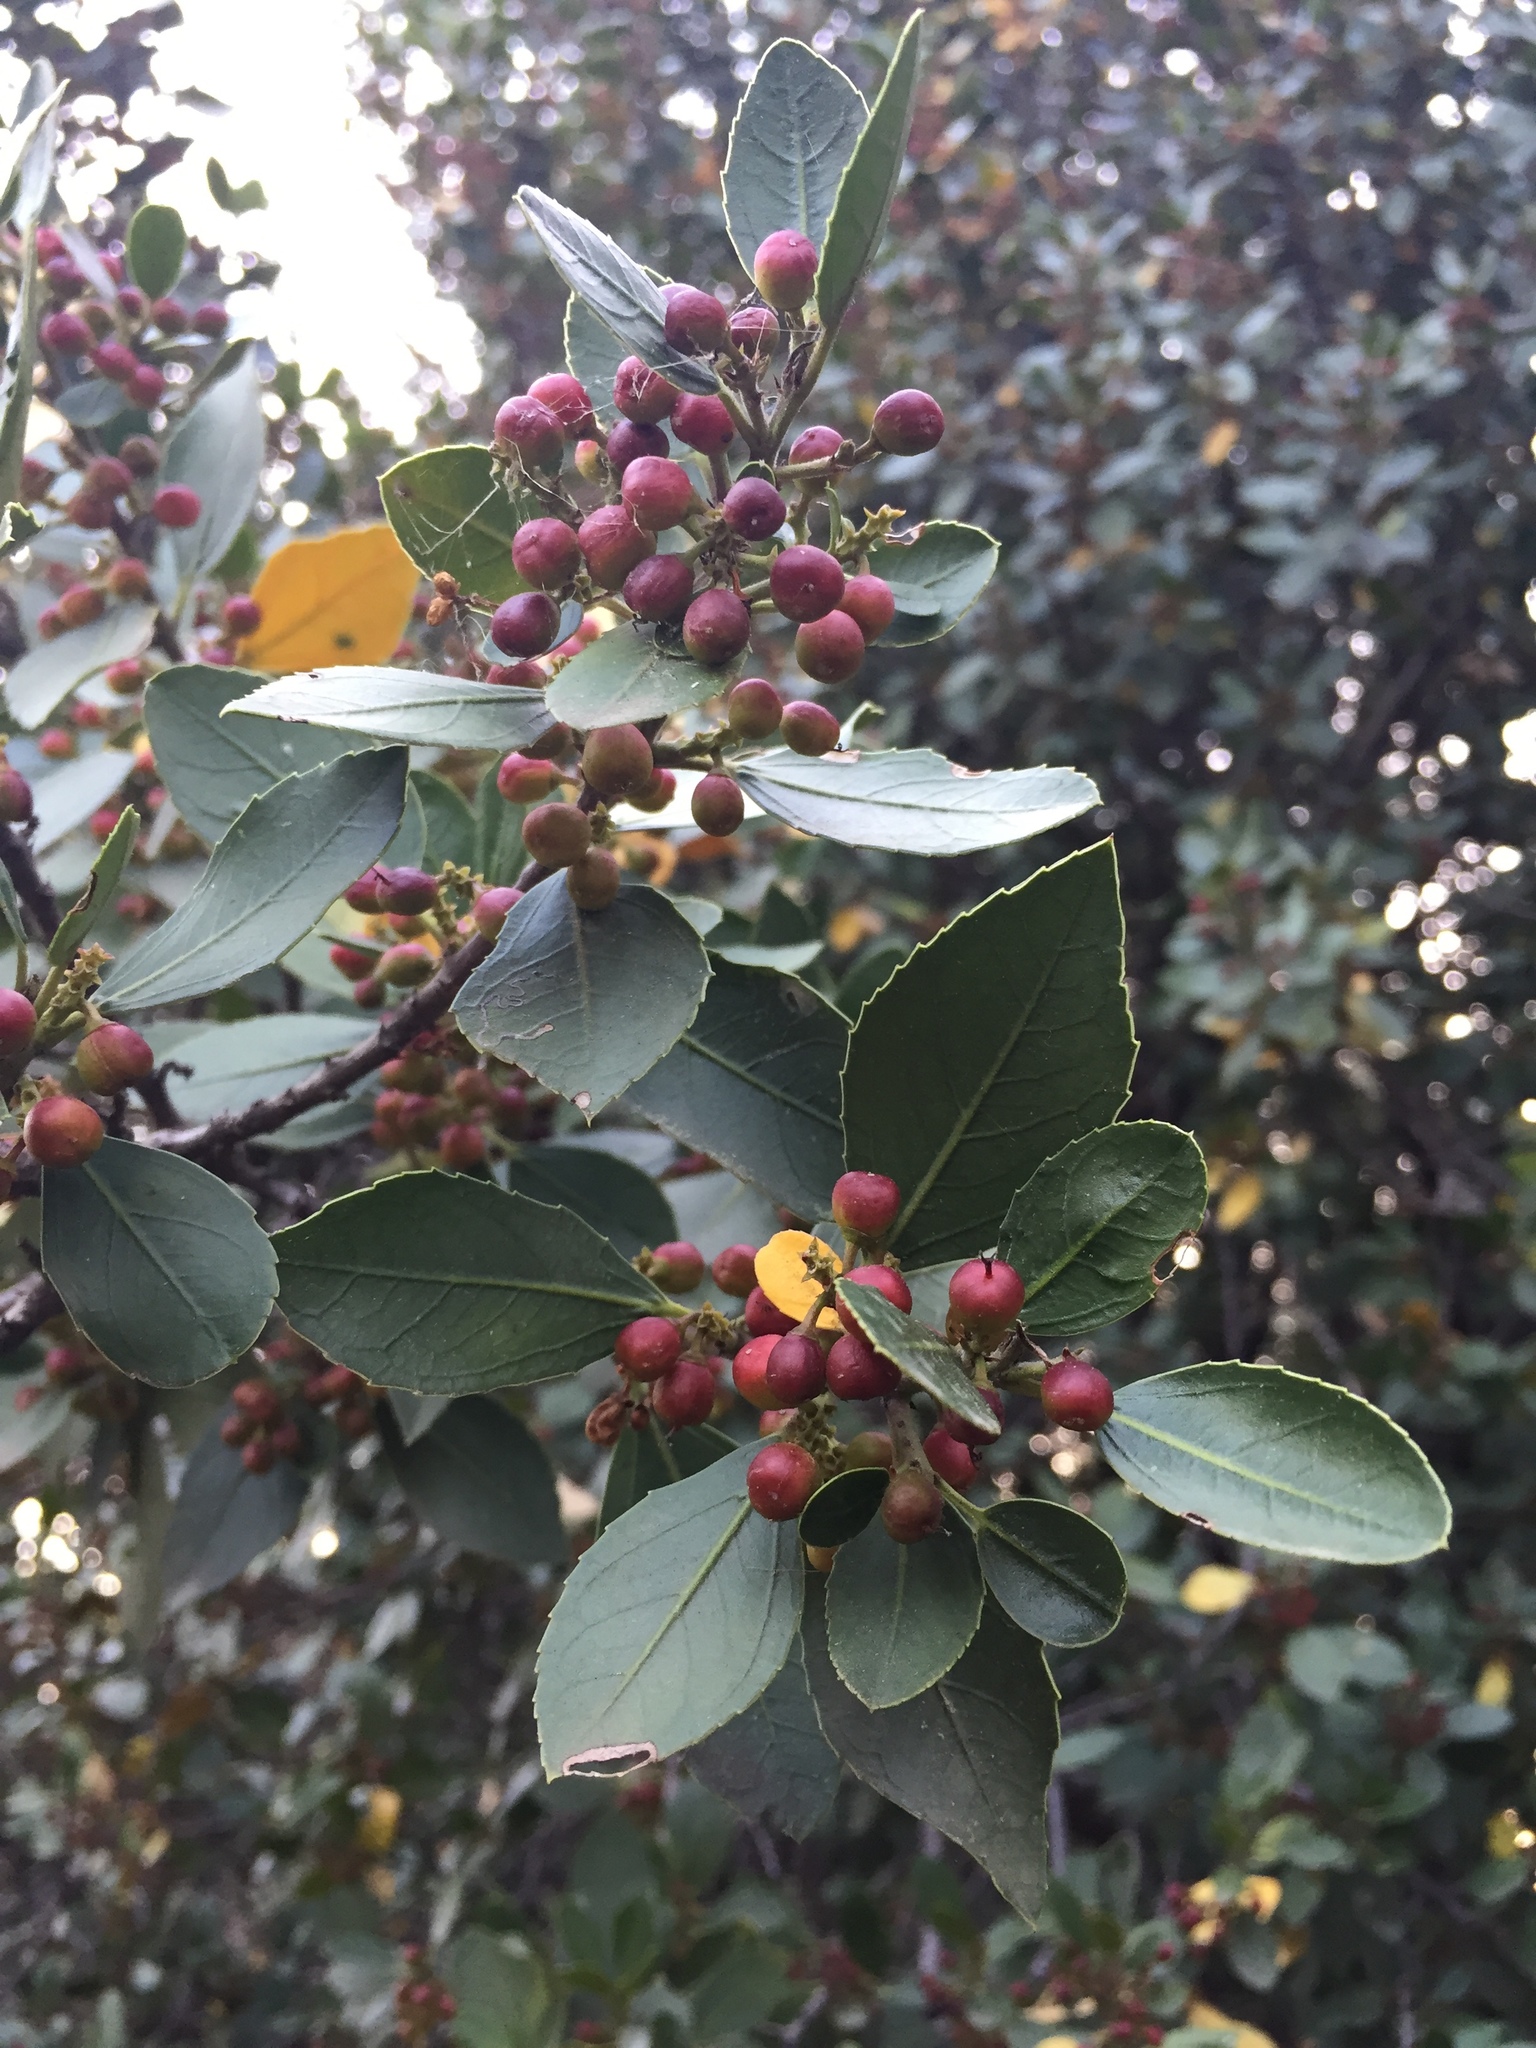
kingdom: Plantae
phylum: Tracheophyta
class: Magnoliopsida
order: Rosales
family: Rhamnaceae
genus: Rhamnus
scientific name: Rhamnus alaternus
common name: Mediterranean buckthorn
